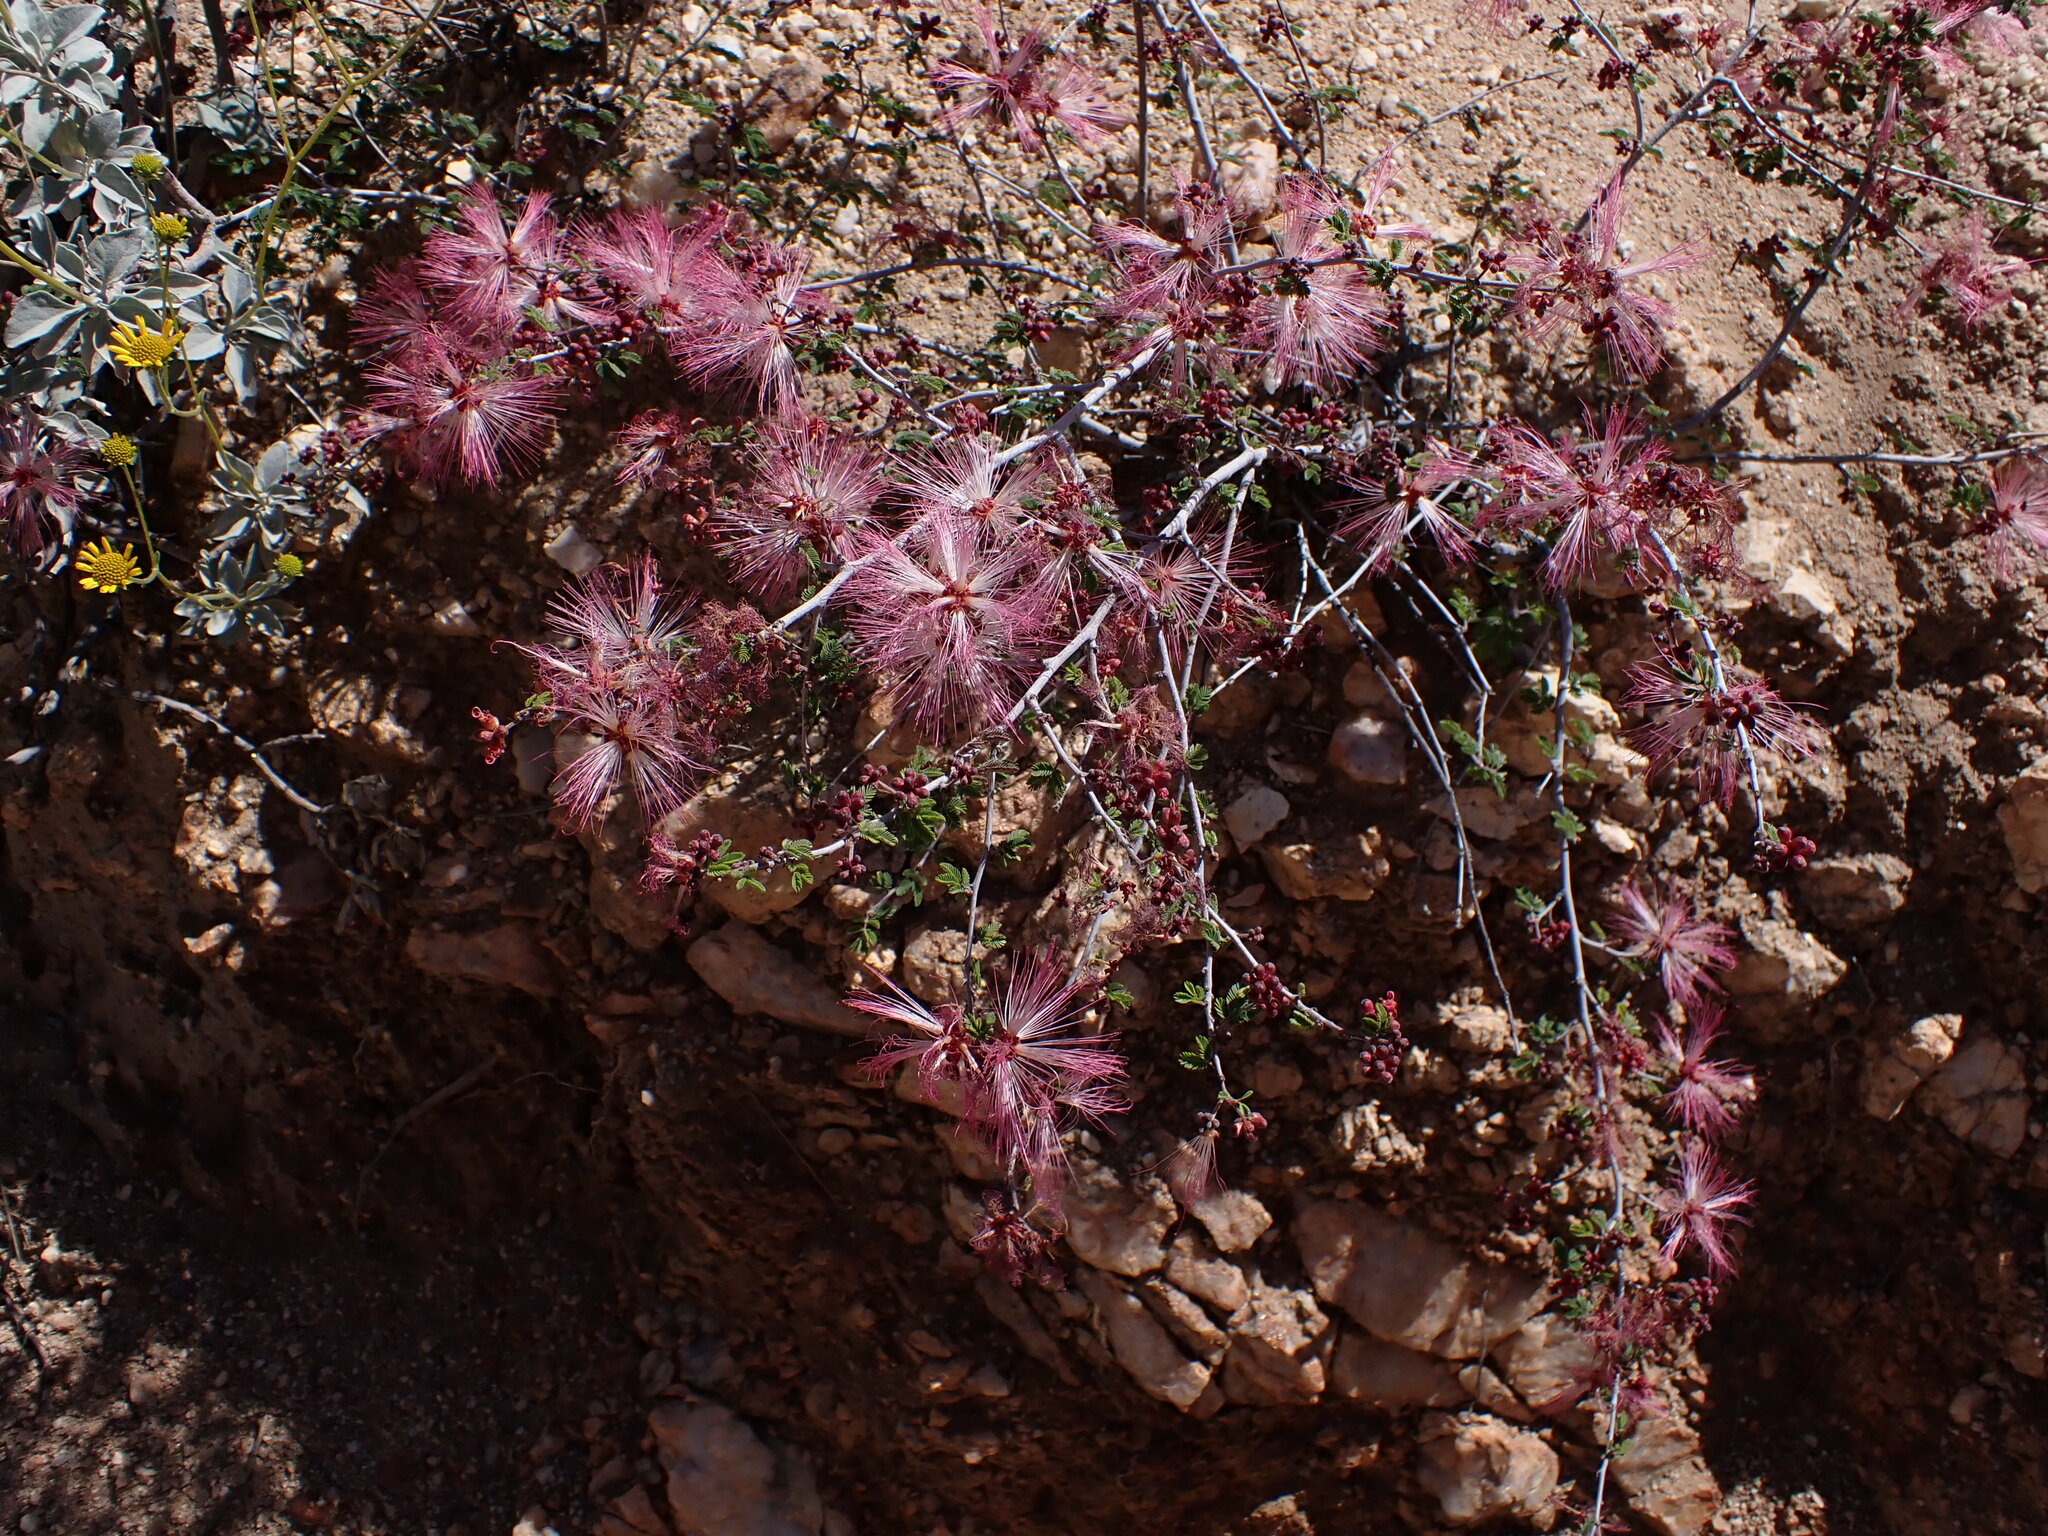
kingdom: Plantae
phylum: Tracheophyta
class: Magnoliopsida
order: Fabales
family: Fabaceae
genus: Calliandra
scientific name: Calliandra eriophylla
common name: Fairy-duster
